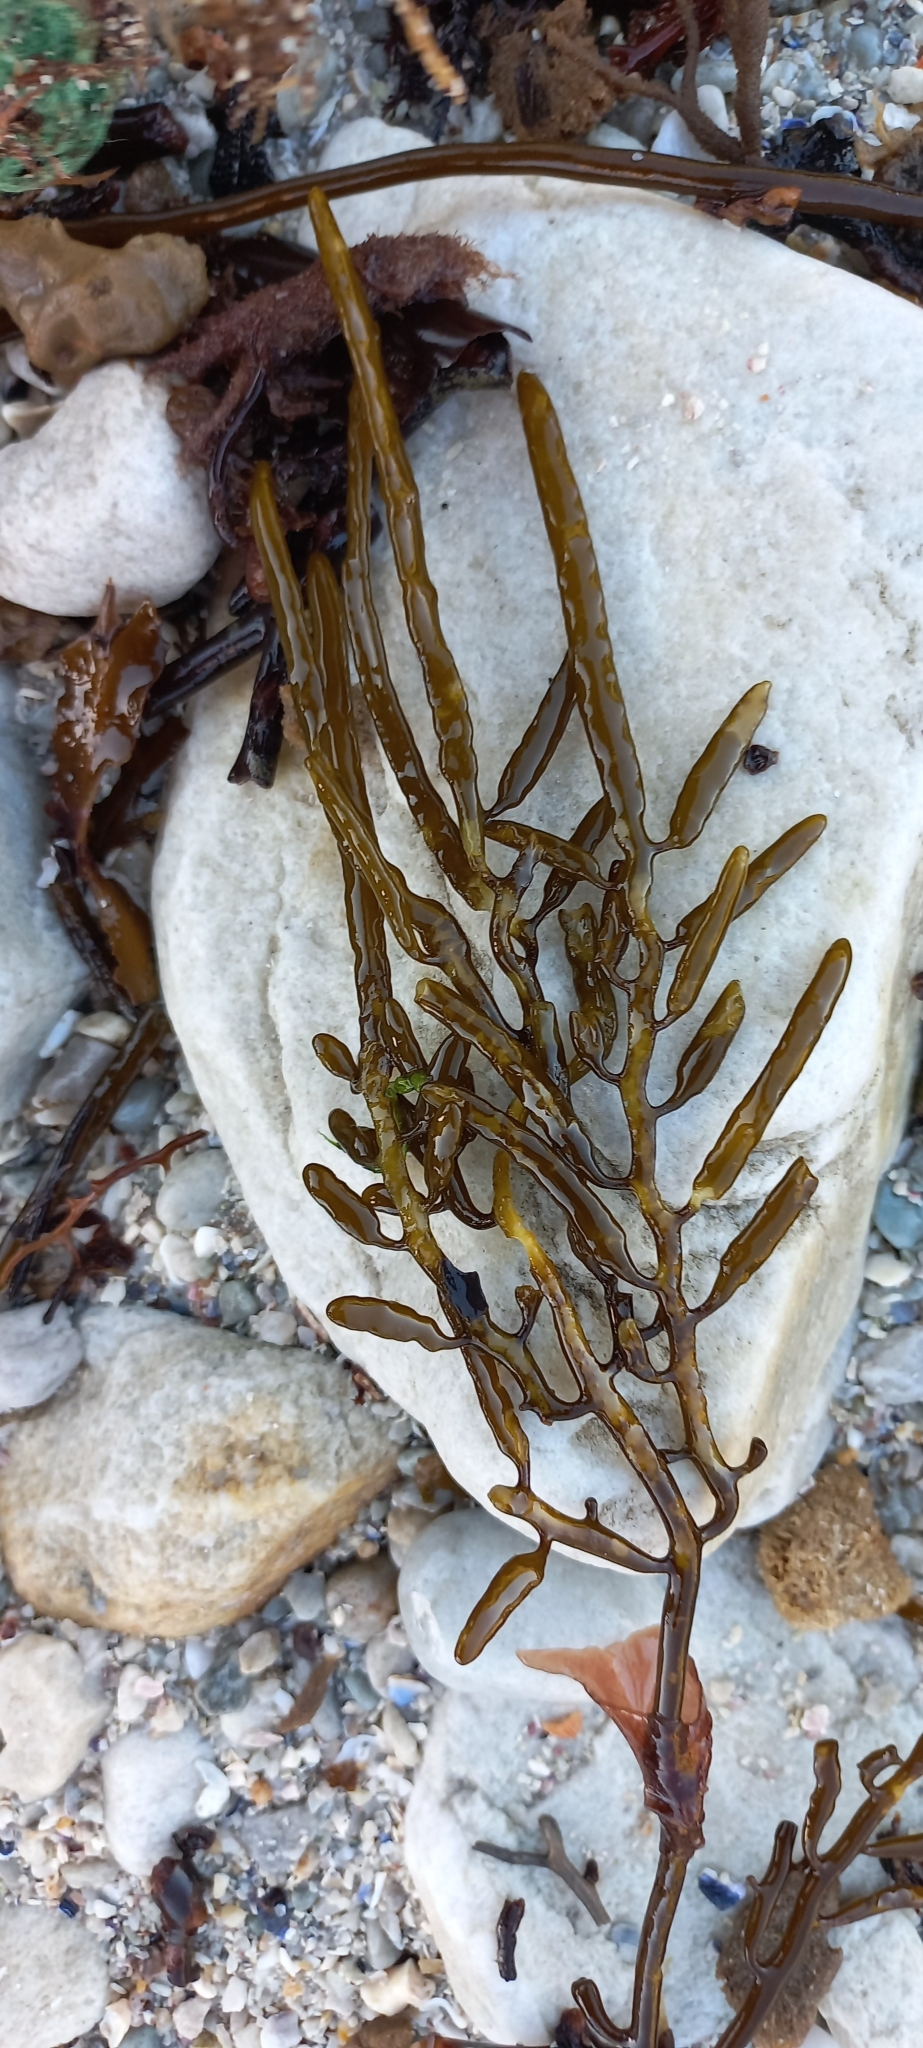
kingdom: Chromista
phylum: Ochrophyta
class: Phaeophyceae
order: Fucales
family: Sargassaceae
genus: Brassicophycus
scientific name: Brassicophycus
